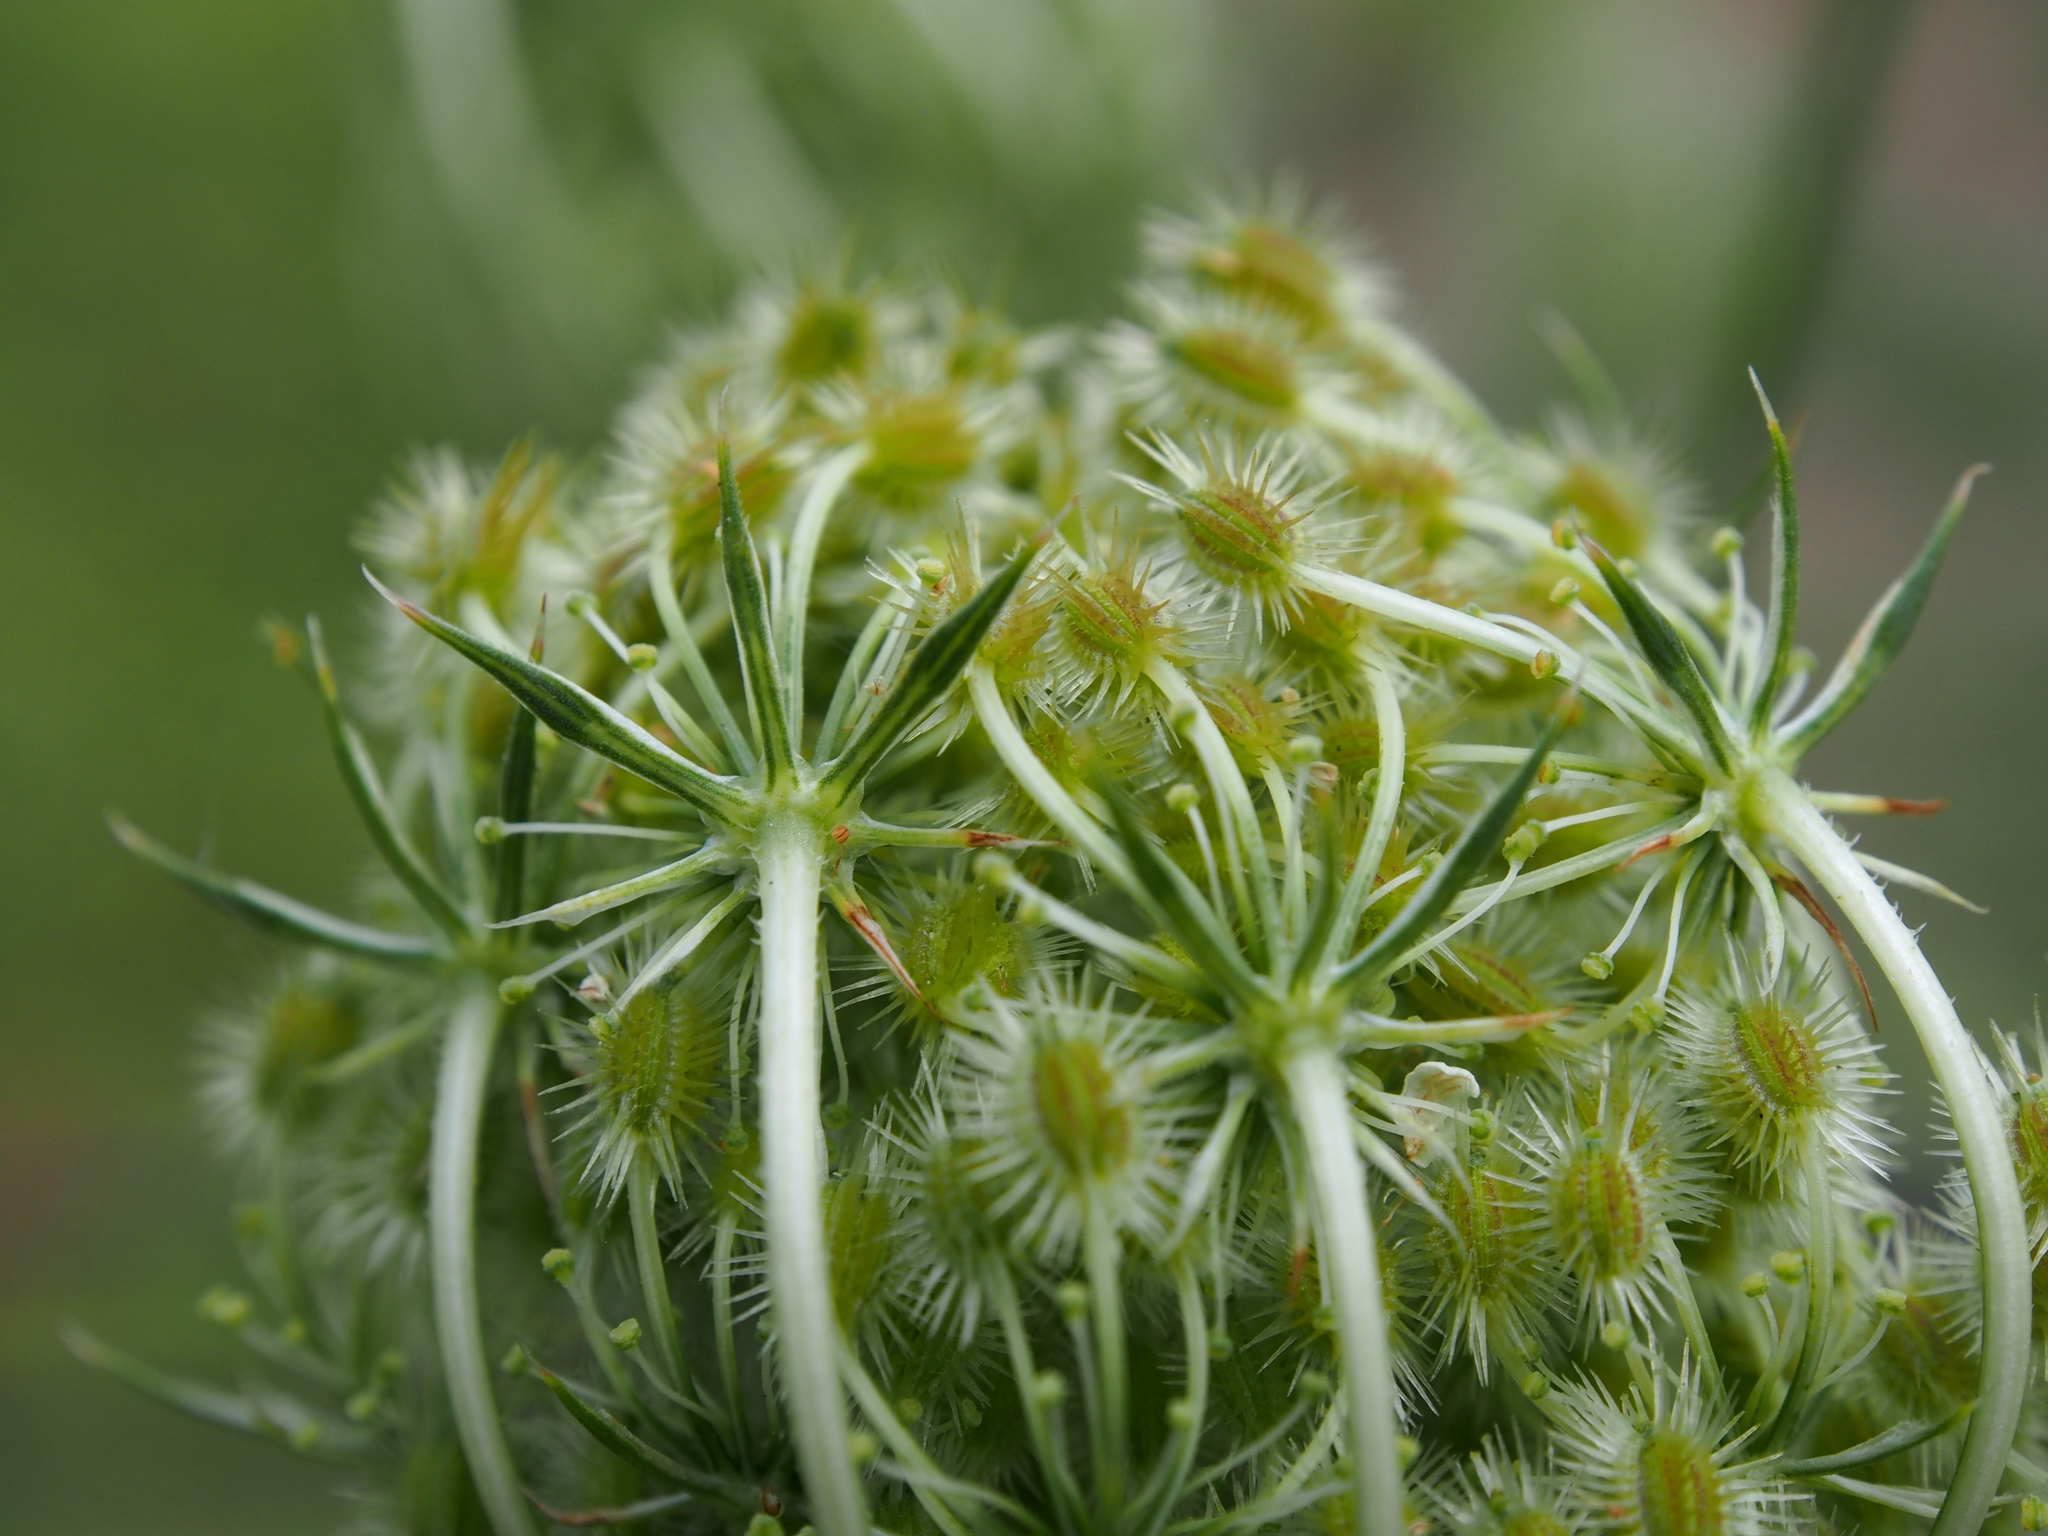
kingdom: Plantae
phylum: Tracheophyta
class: Magnoliopsida
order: Apiales
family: Apiaceae
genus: Daucus
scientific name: Daucus carota
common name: Wild carrot
